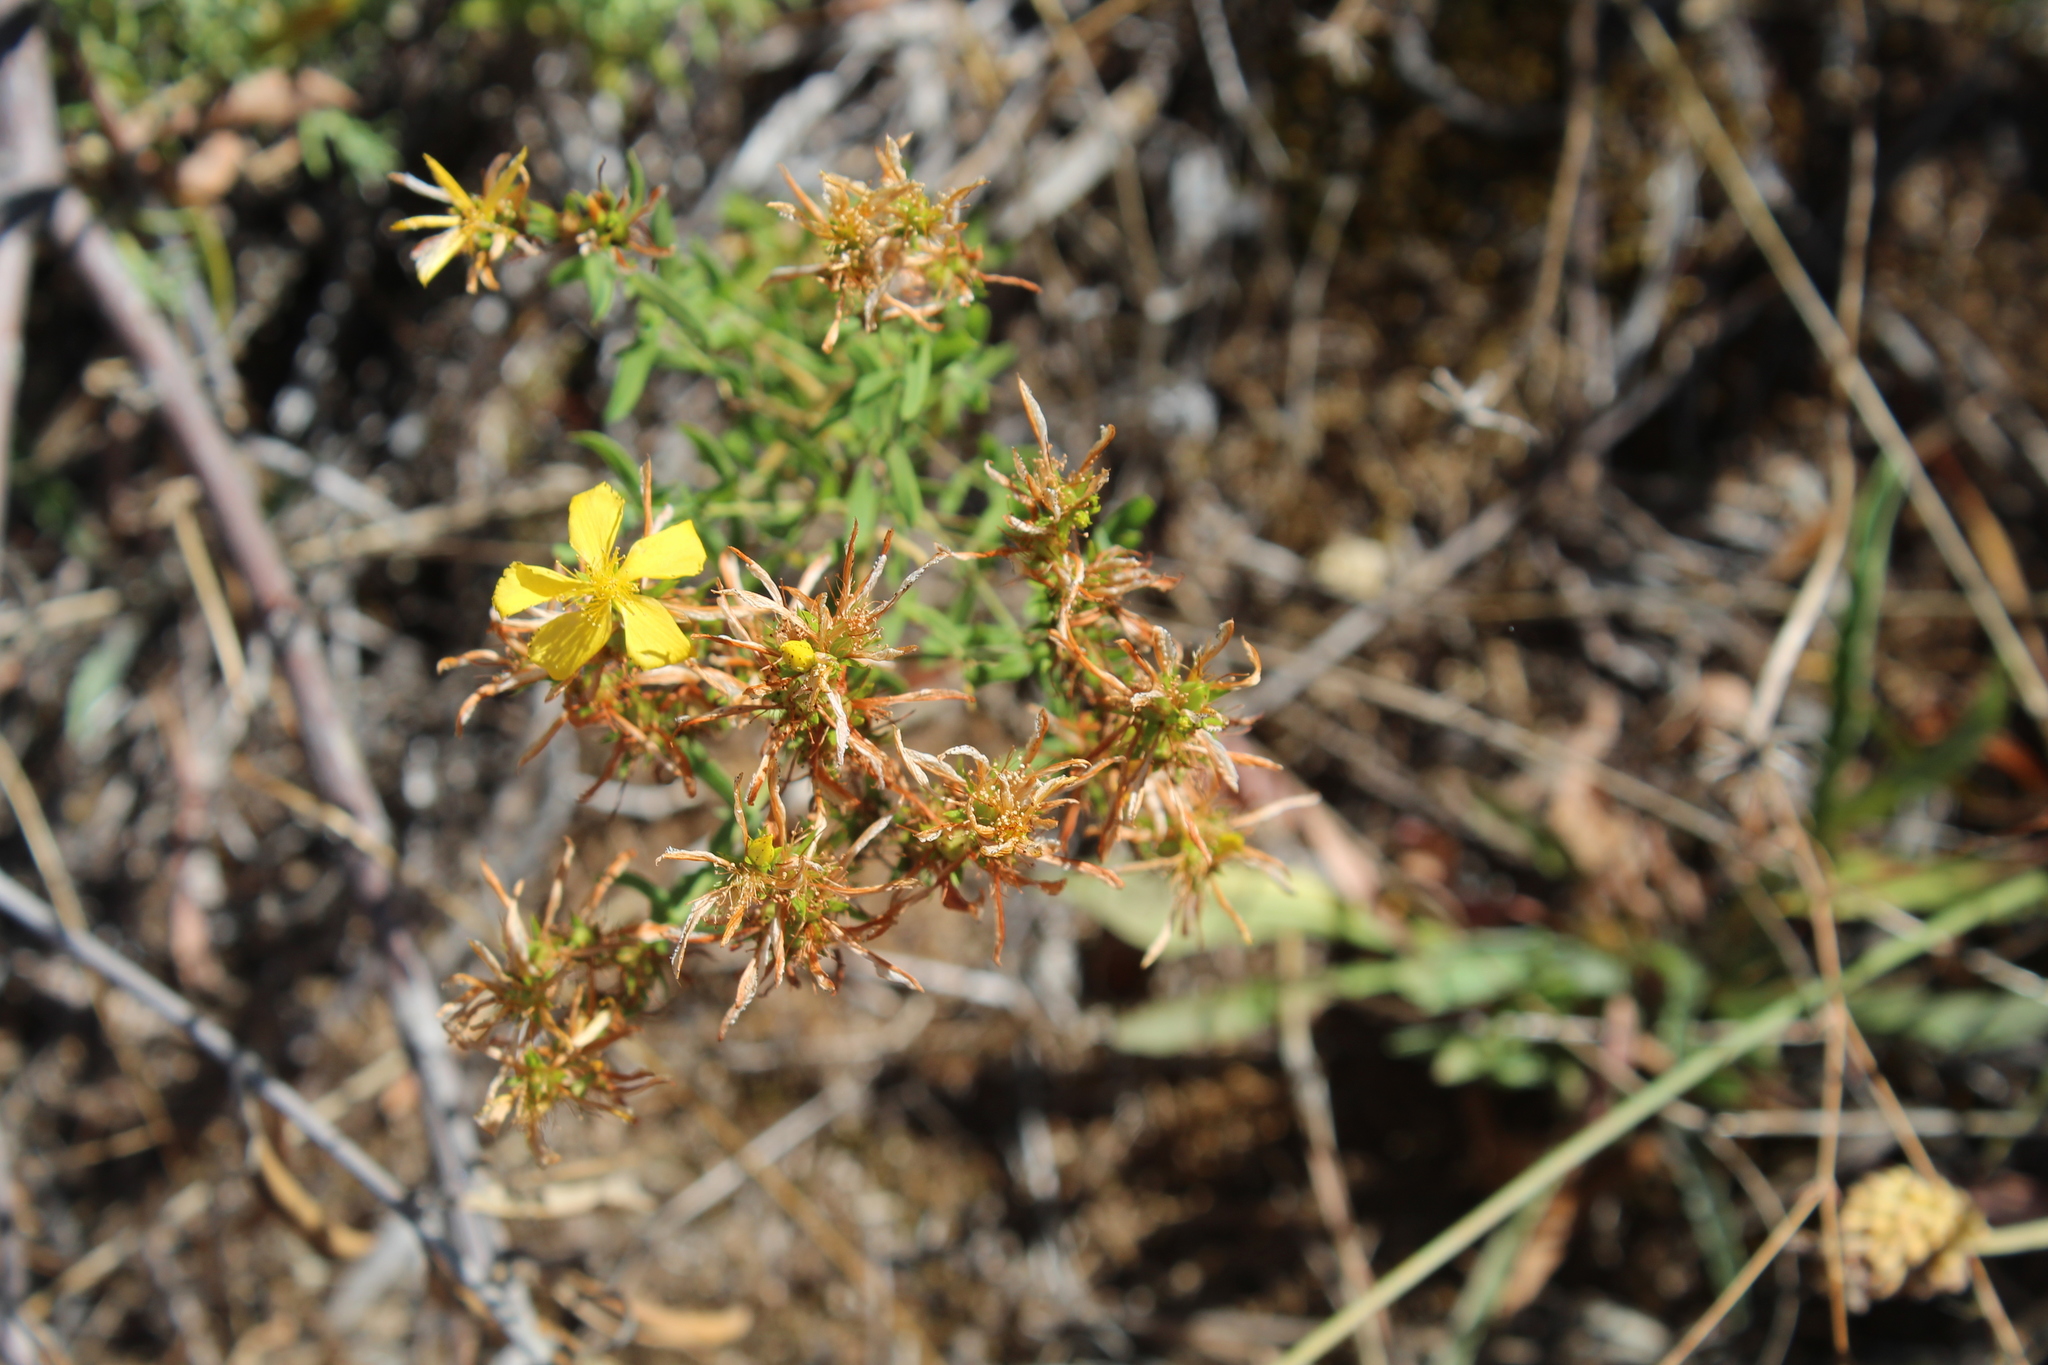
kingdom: Plantae
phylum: Tracheophyta
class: Magnoliopsida
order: Malpighiales
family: Hypericaceae
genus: Hypericum
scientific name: Hypericum perforatum
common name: Common st. johnswort
